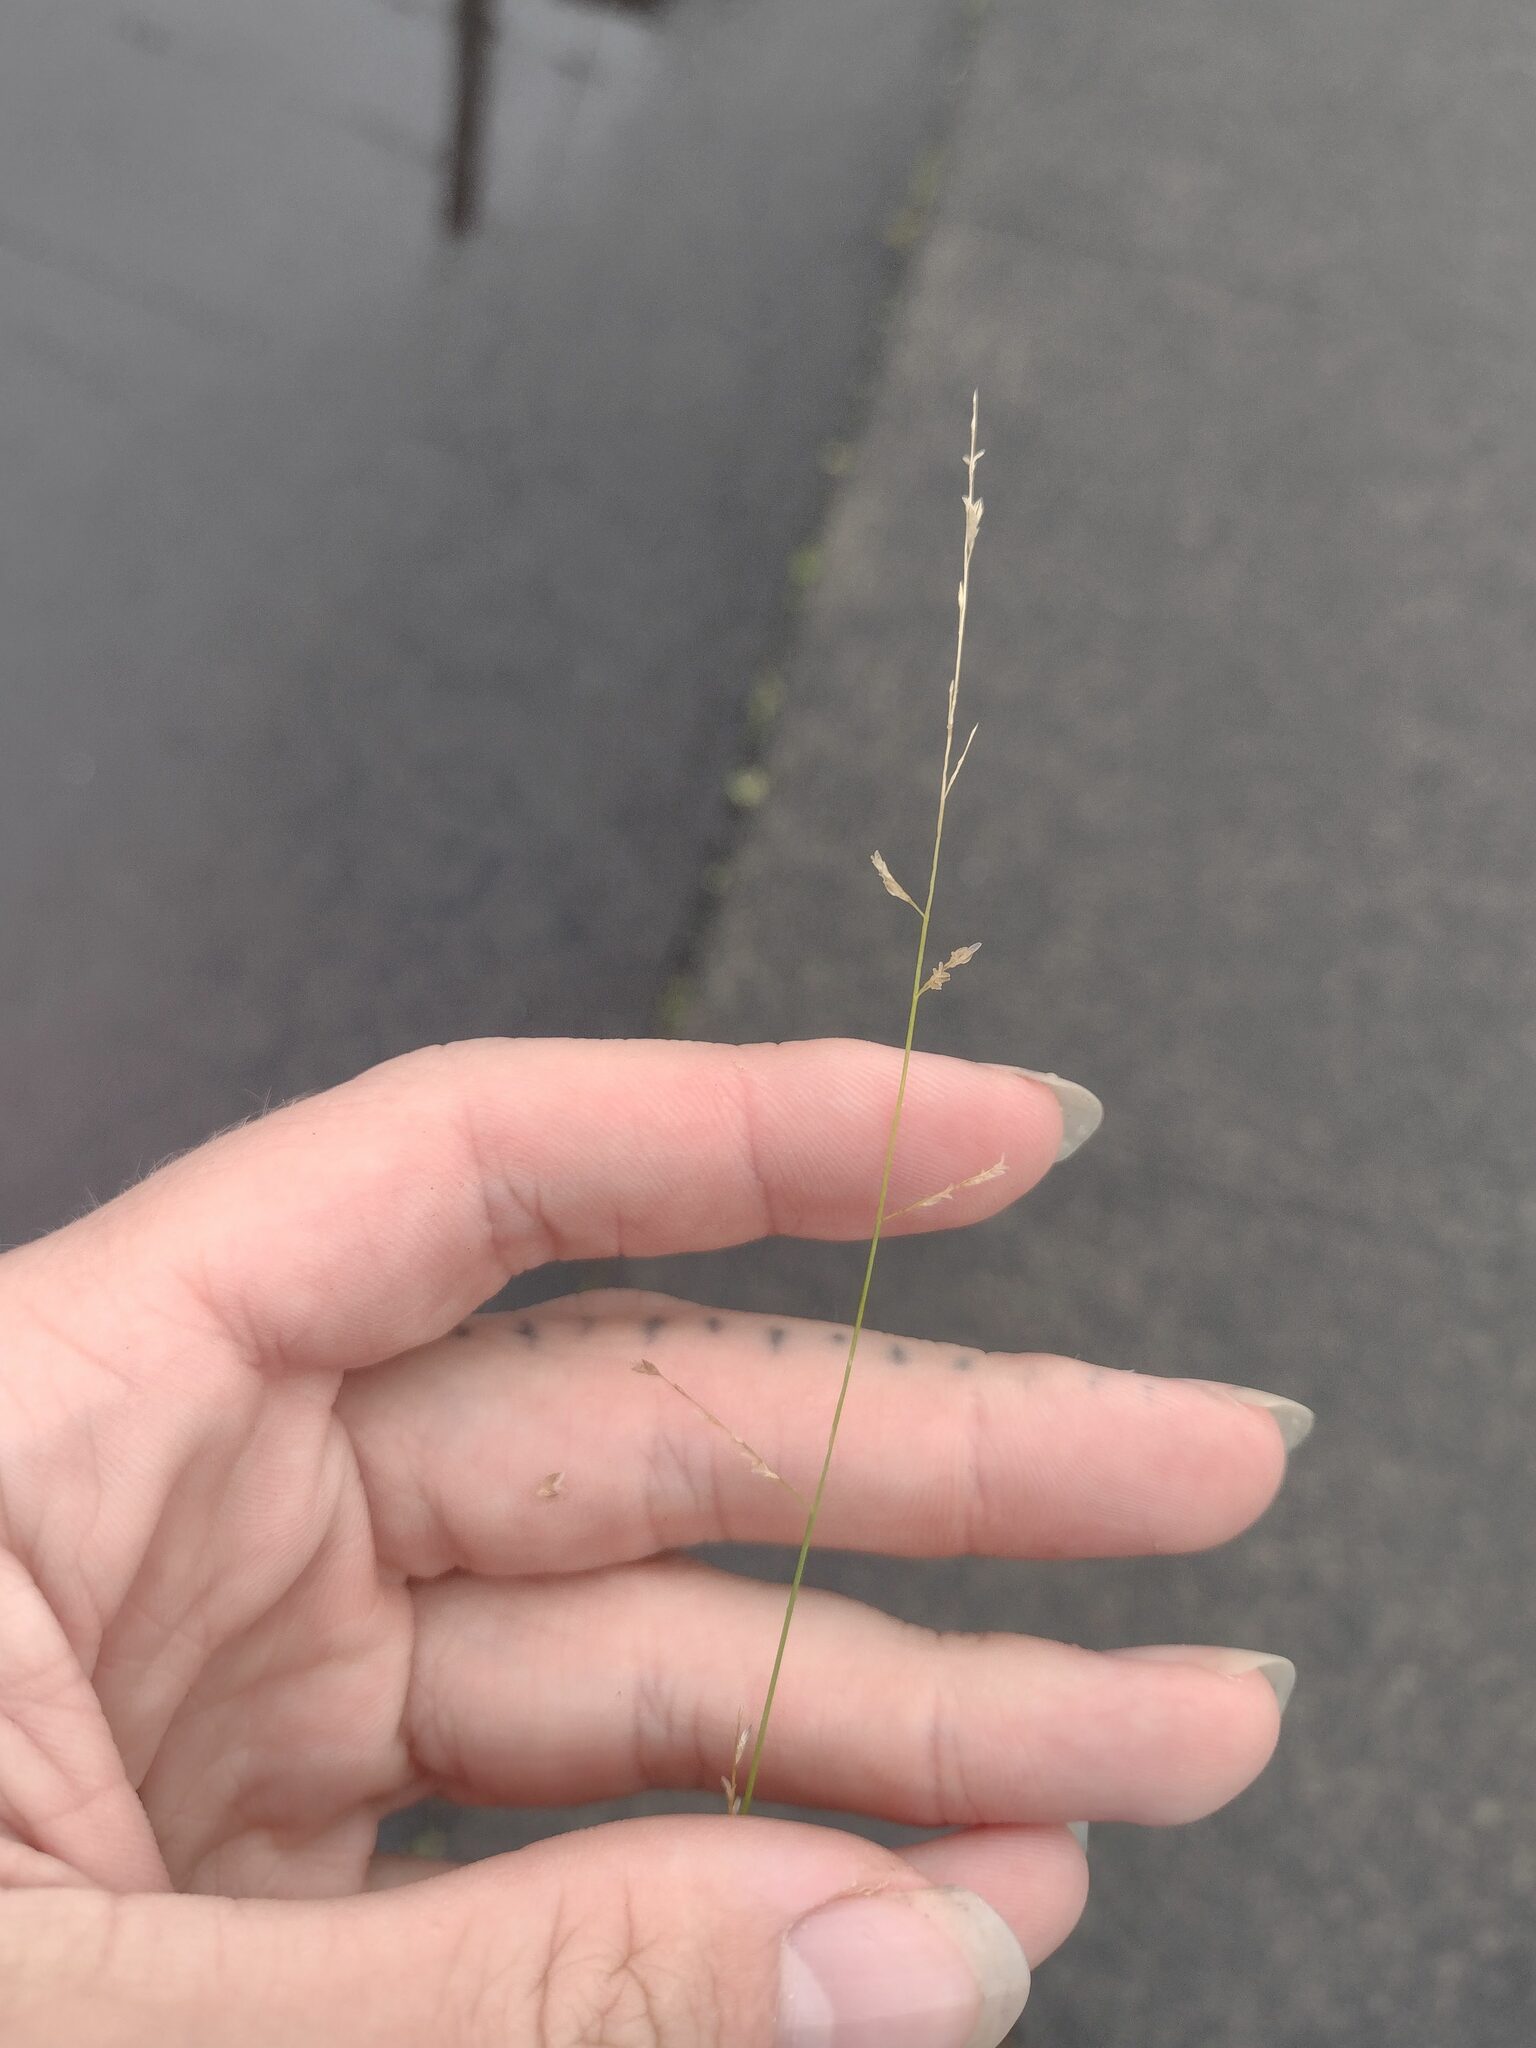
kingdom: Plantae
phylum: Tracheophyta
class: Liliopsida
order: Poales
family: Poaceae
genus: Eragrostis
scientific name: Eragrostis brownii
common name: Lovegrass
